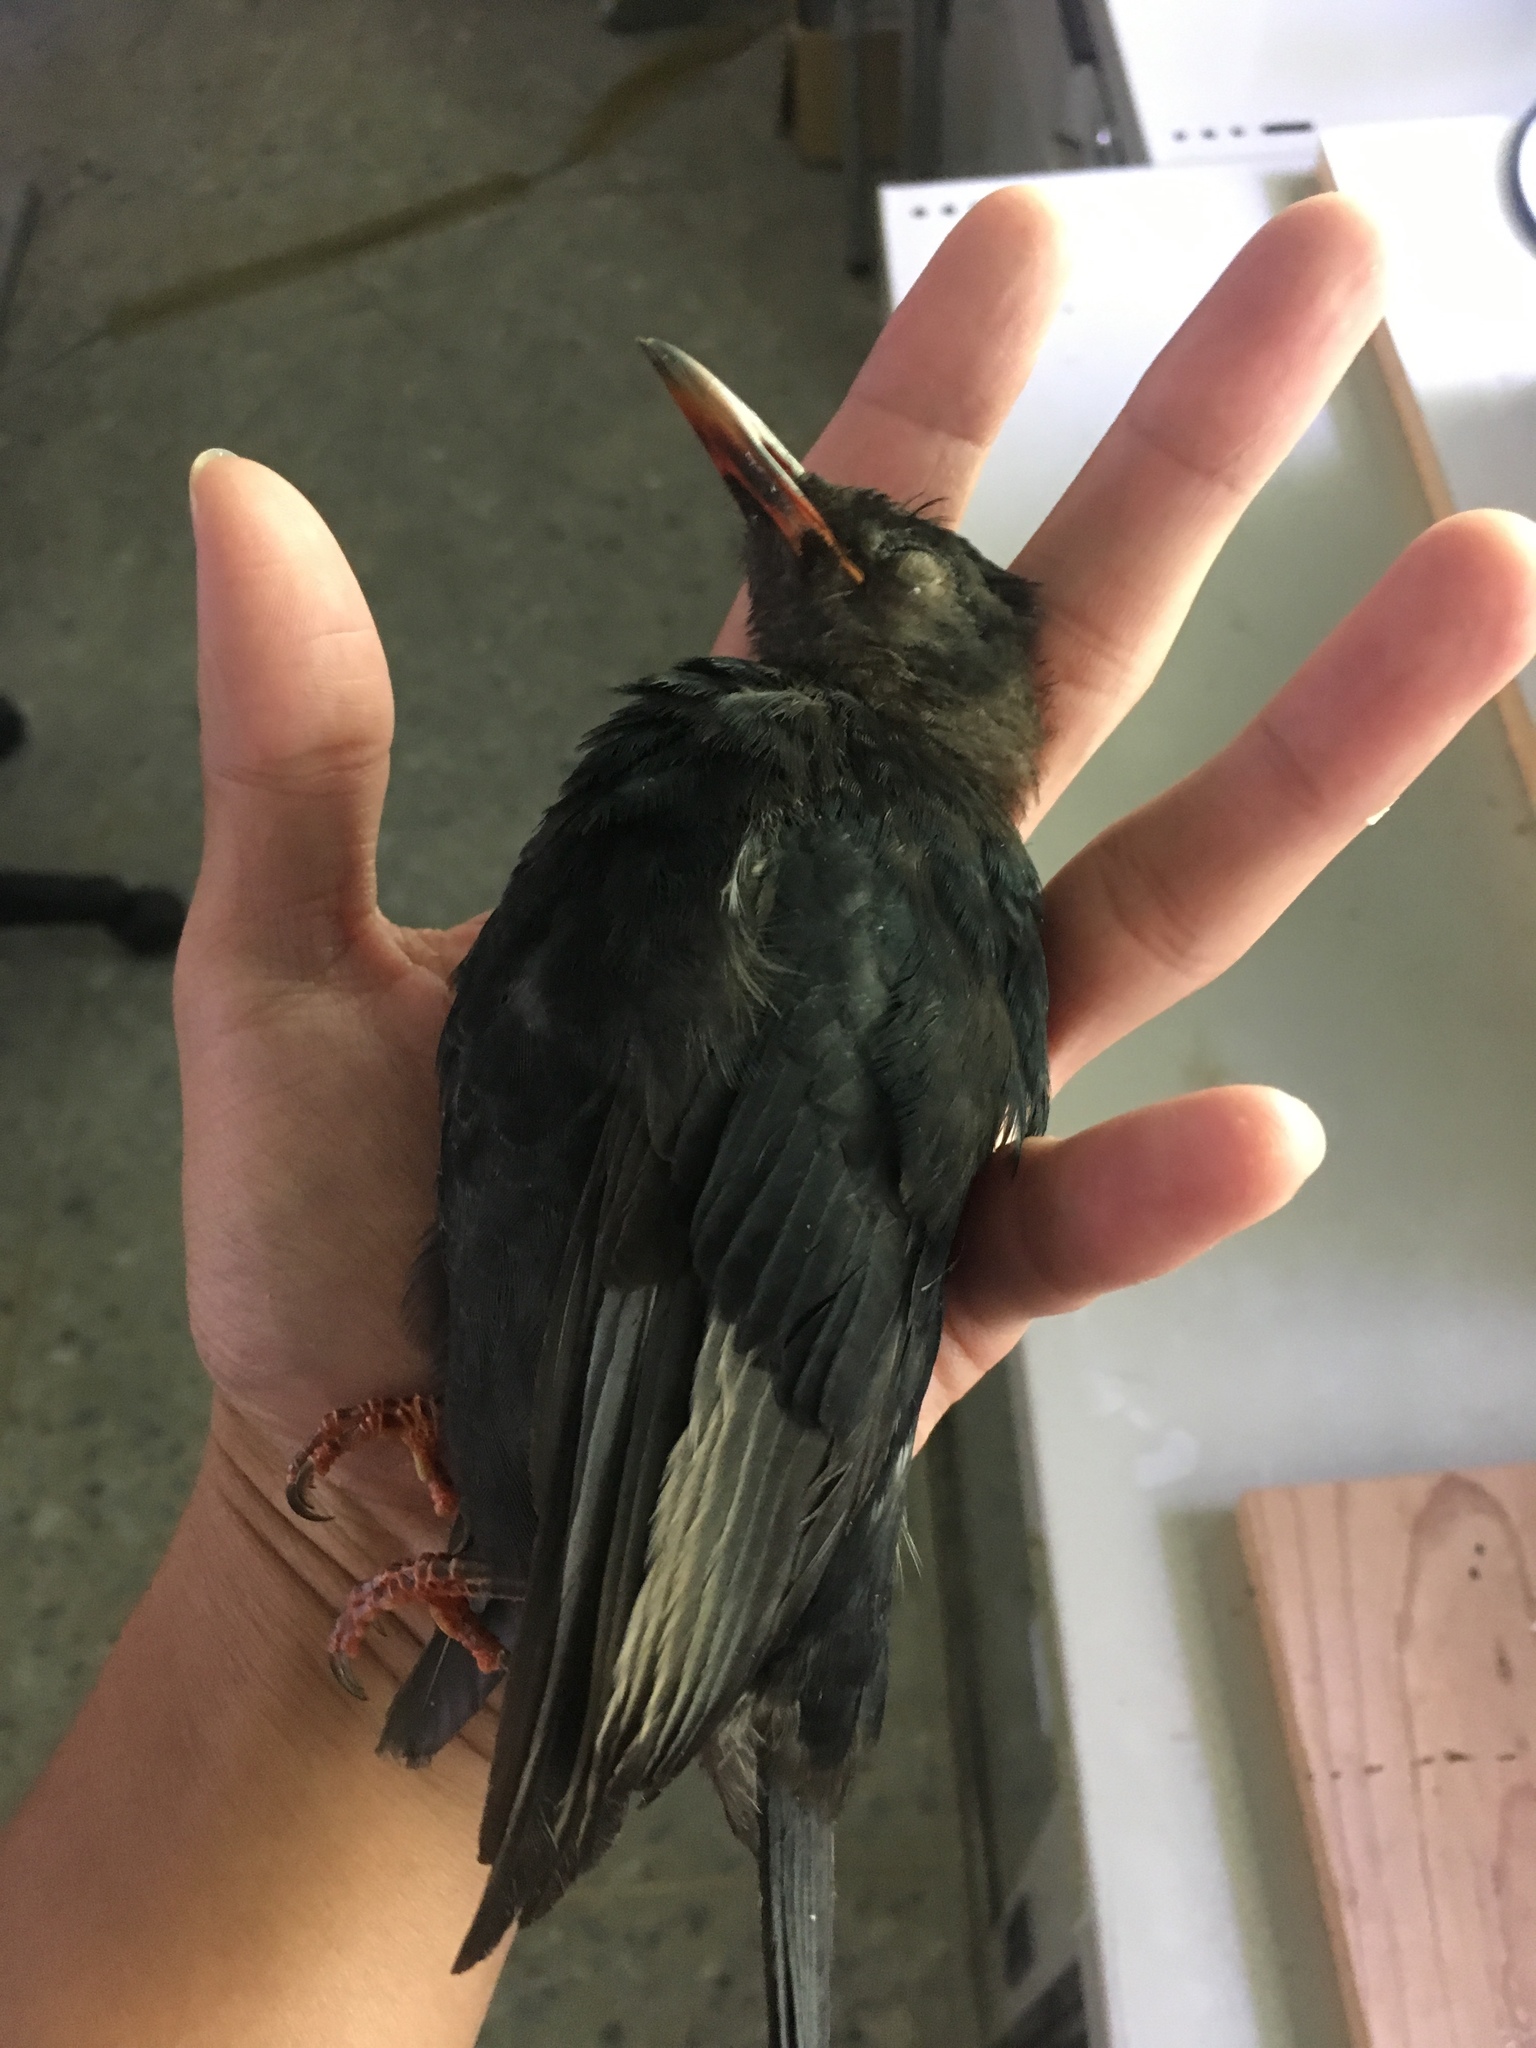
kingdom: Animalia
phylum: Chordata
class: Aves
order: Passeriformes
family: Pycnonotidae
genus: Hypsipetes
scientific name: Hypsipetes leucocephalus
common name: Black bulbul
